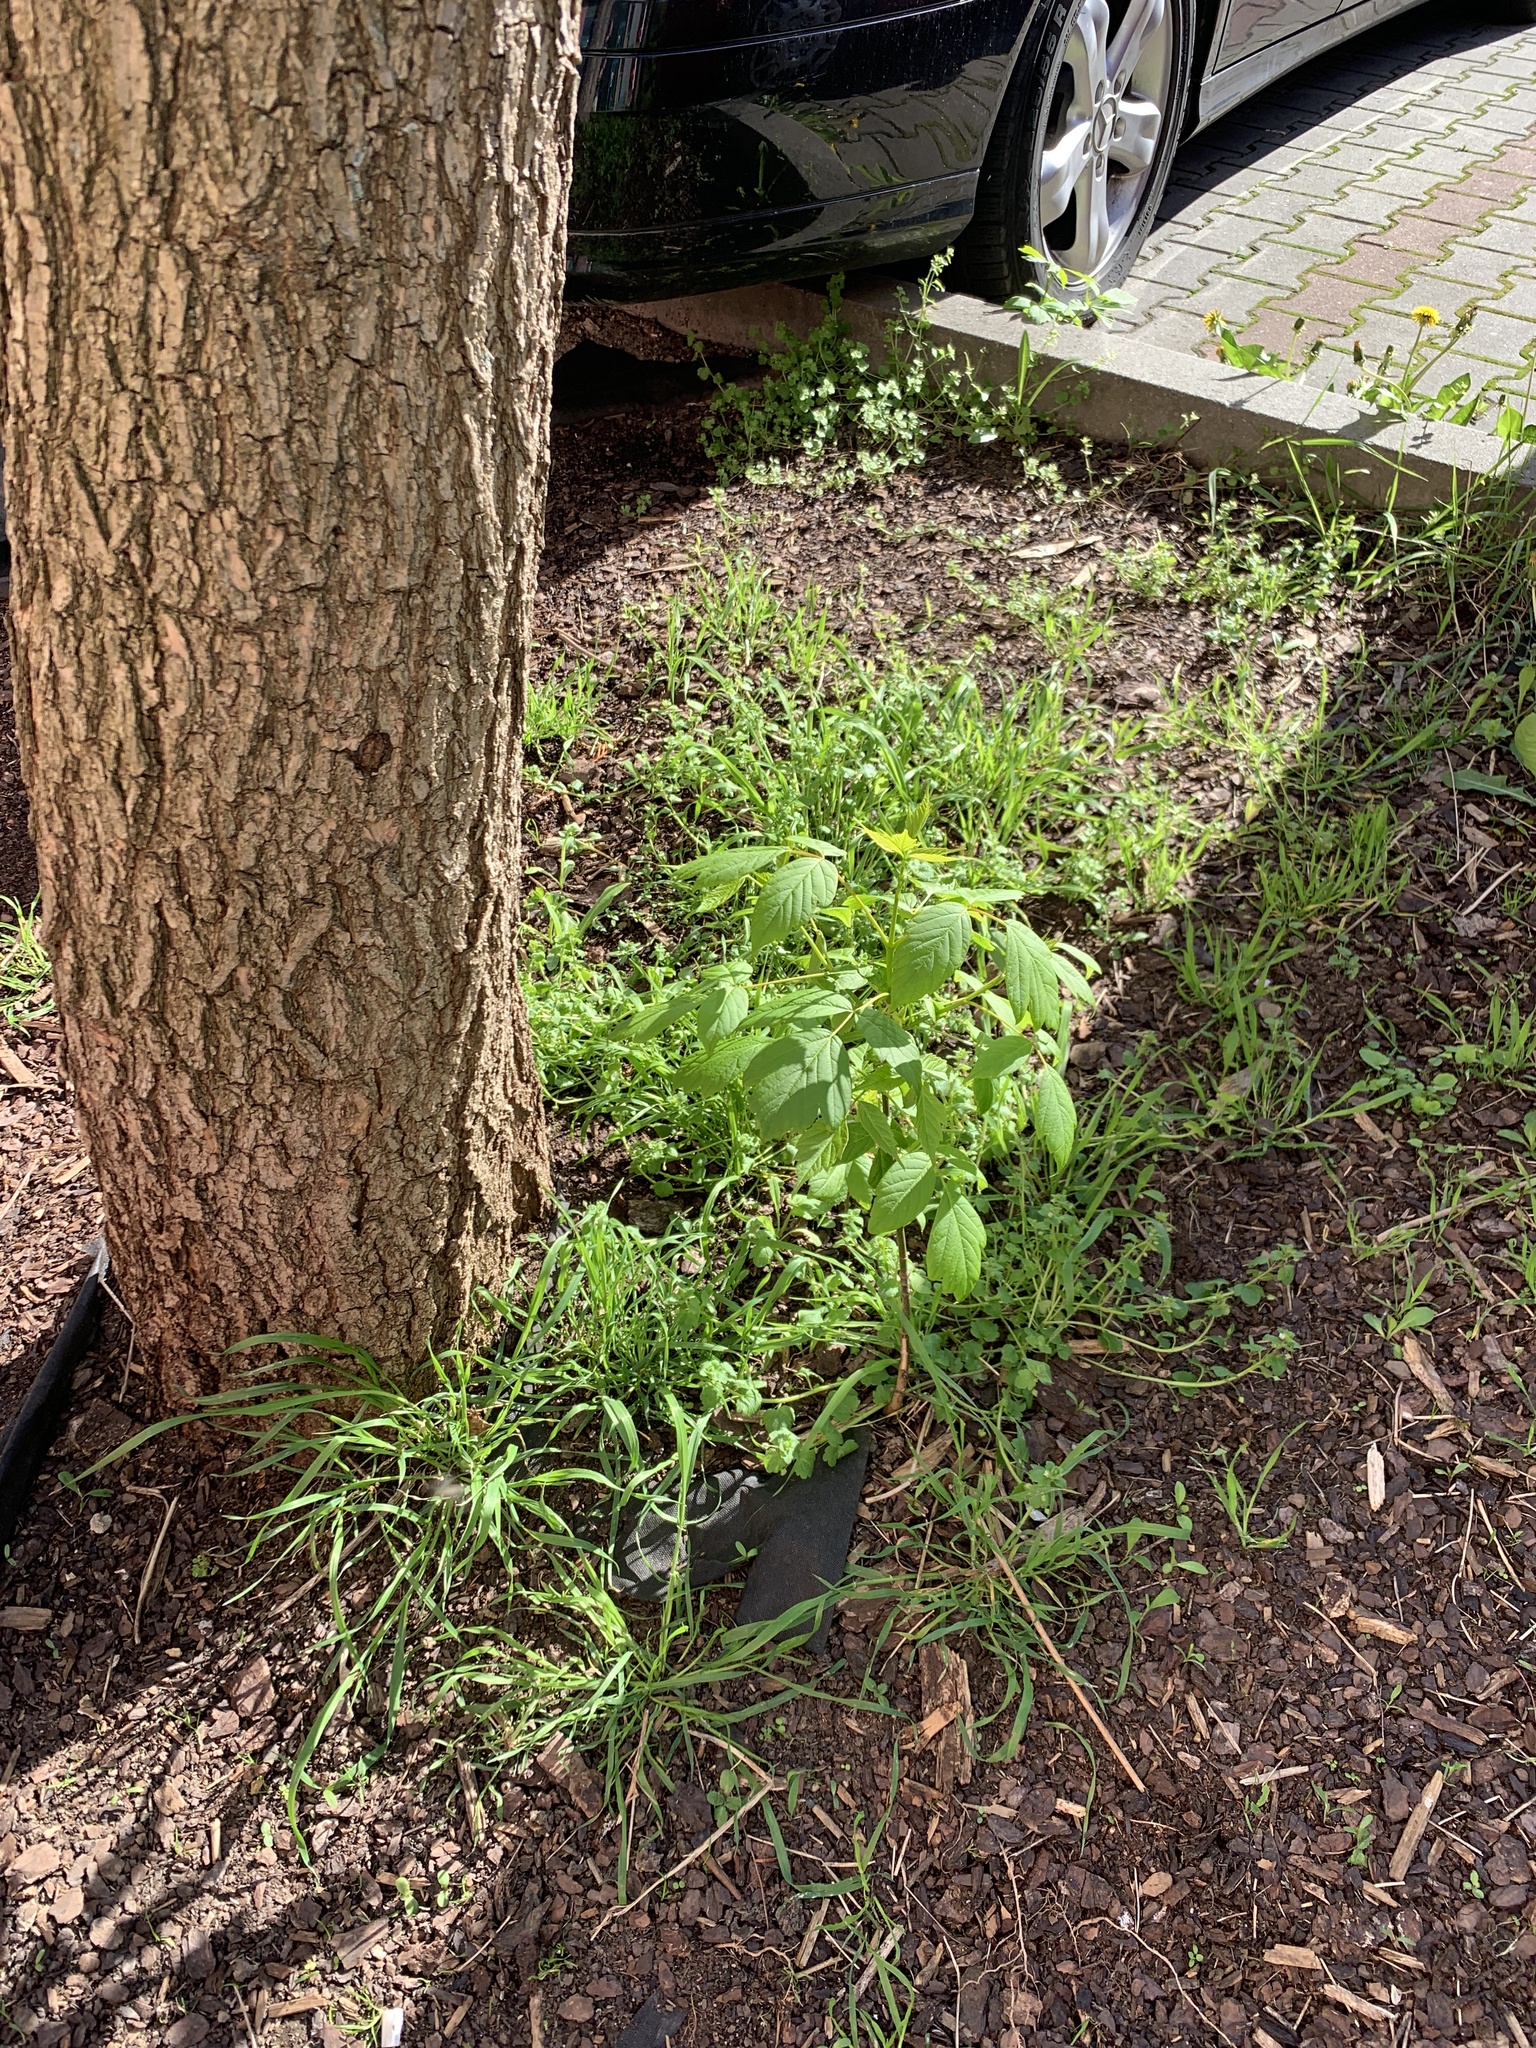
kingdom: Plantae
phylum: Tracheophyta
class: Magnoliopsida
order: Sapindales
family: Sapindaceae
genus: Acer
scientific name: Acer negundo
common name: Ashleaf maple
